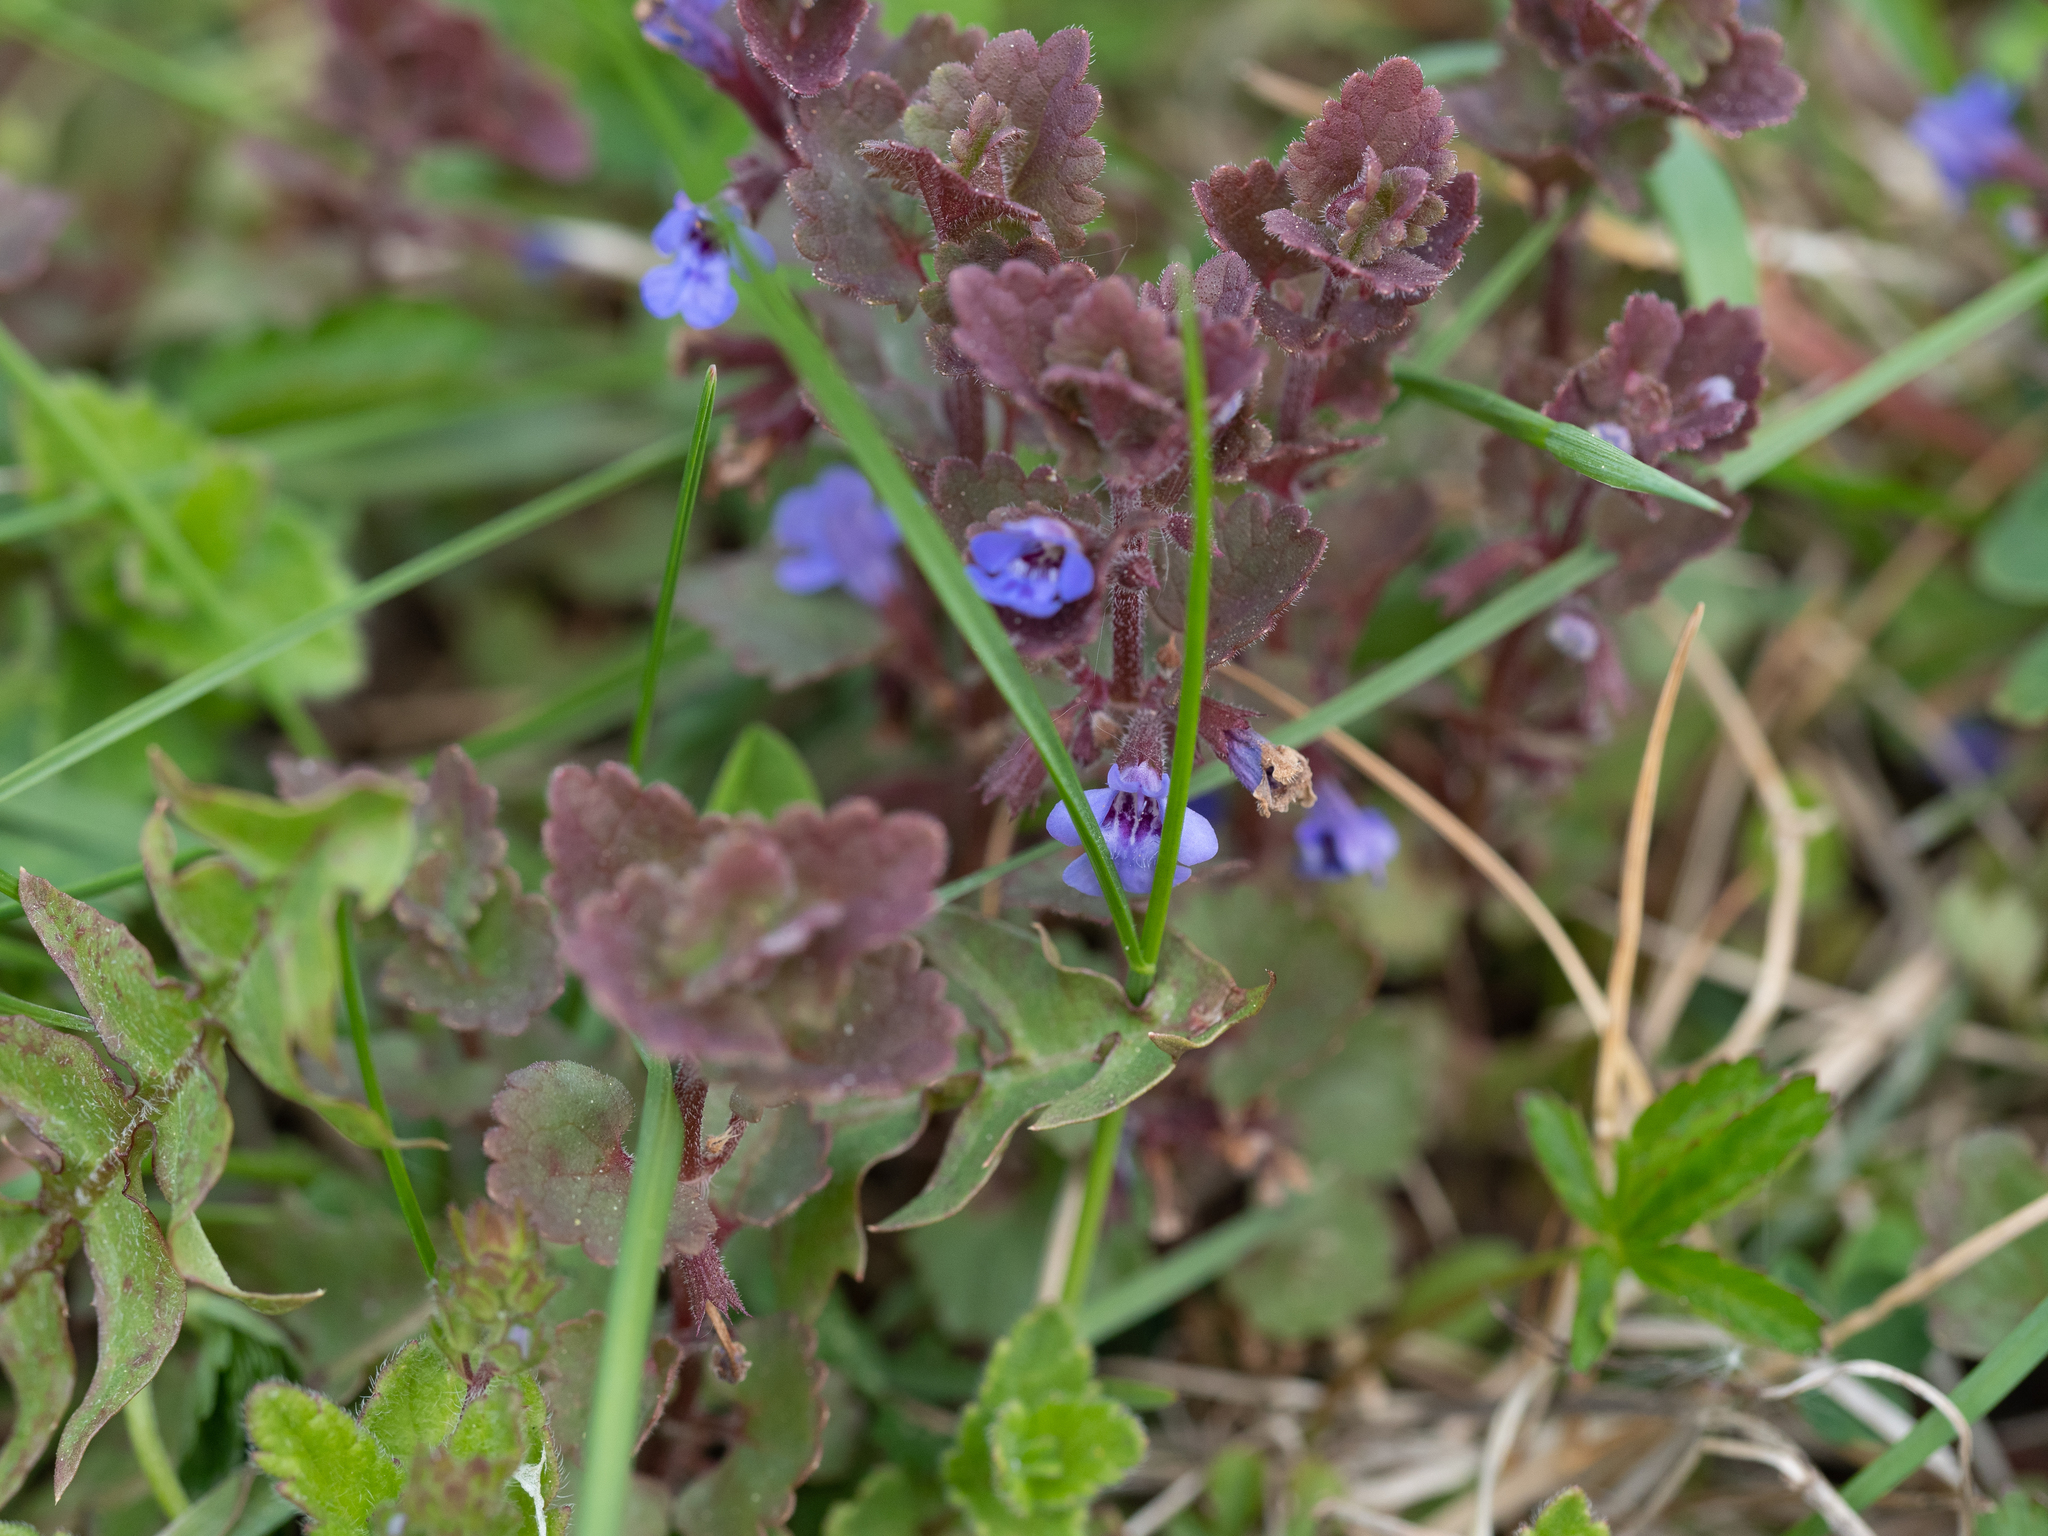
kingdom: Plantae
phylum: Tracheophyta
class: Magnoliopsida
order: Lamiales
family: Lamiaceae
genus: Glechoma
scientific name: Glechoma hederacea
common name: Ground ivy
